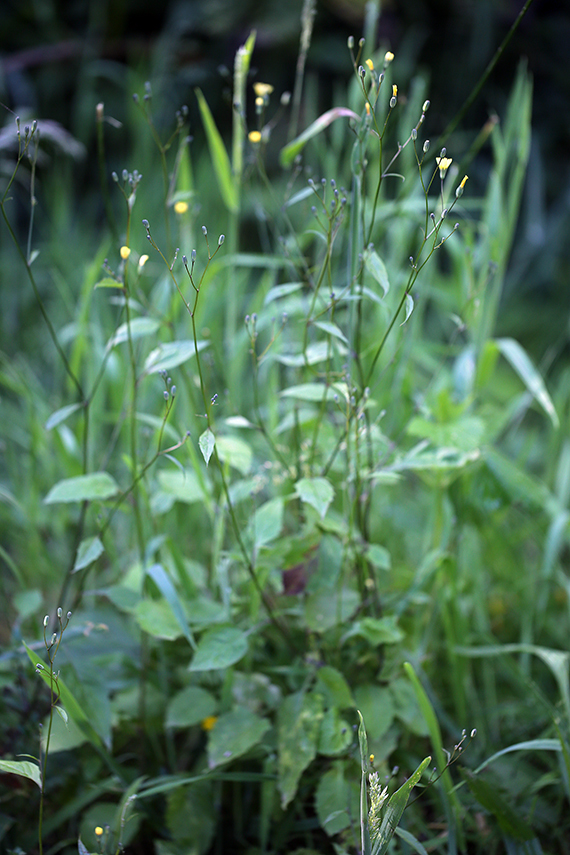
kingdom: Plantae
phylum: Tracheophyta
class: Magnoliopsida
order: Asterales
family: Asteraceae
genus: Lapsana
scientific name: Lapsana communis
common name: Nipplewort
